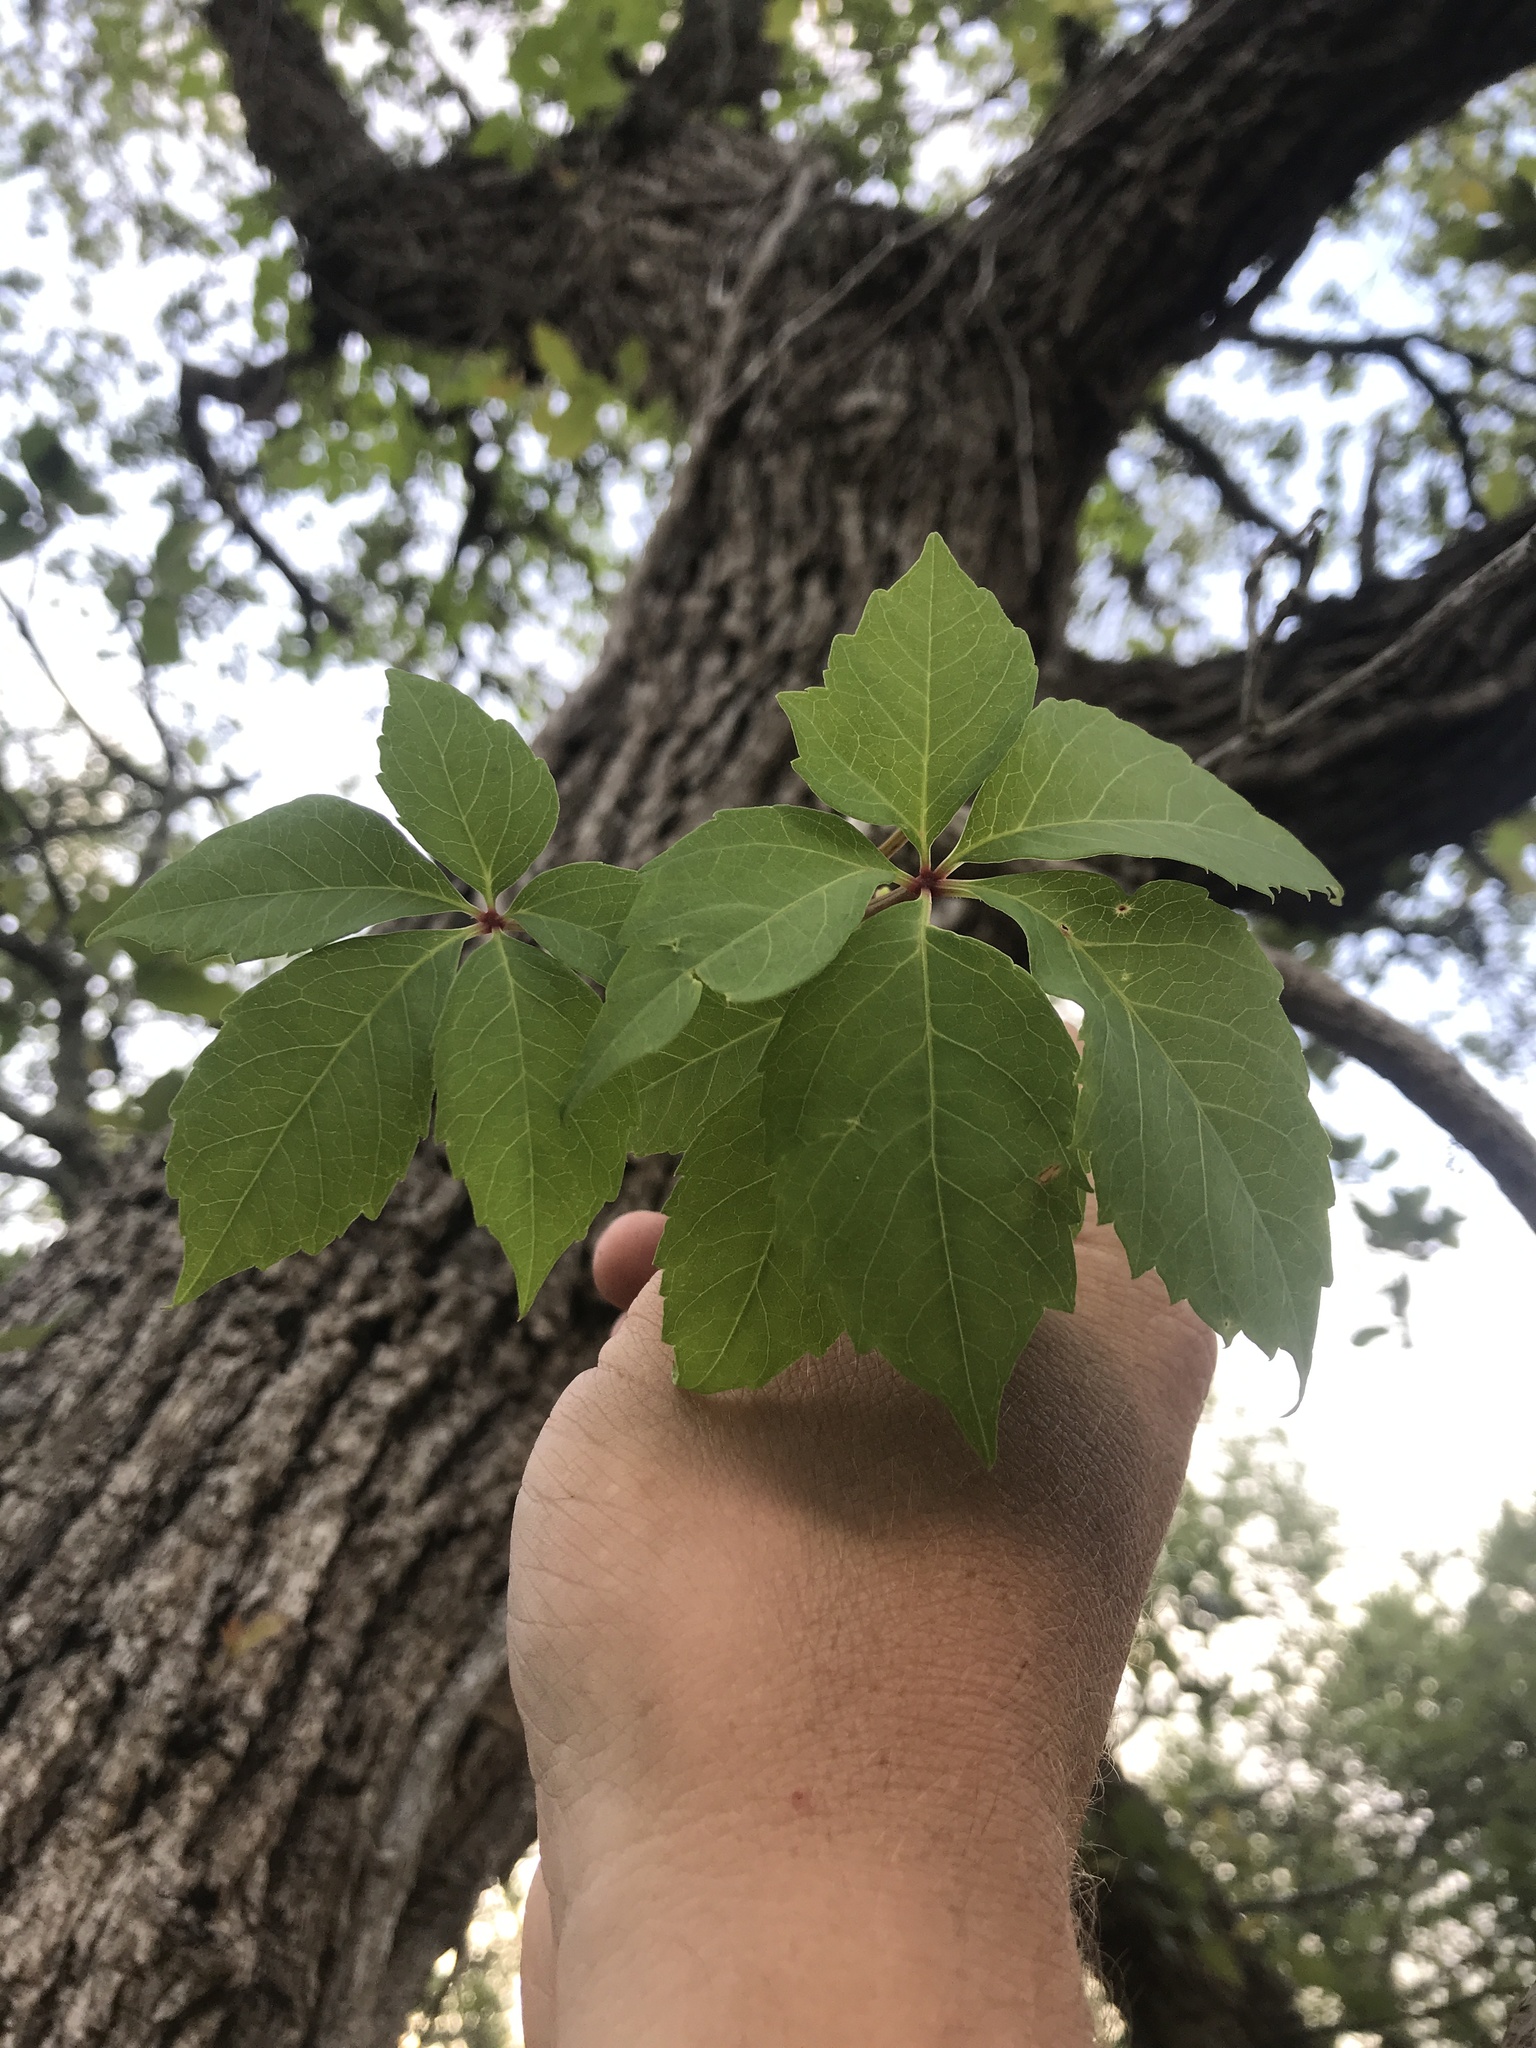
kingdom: Plantae
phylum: Tracheophyta
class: Magnoliopsida
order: Vitales
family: Vitaceae
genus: Parthenocissus
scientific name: Parthenocissus quinquefolia
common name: Virginia-creeper
